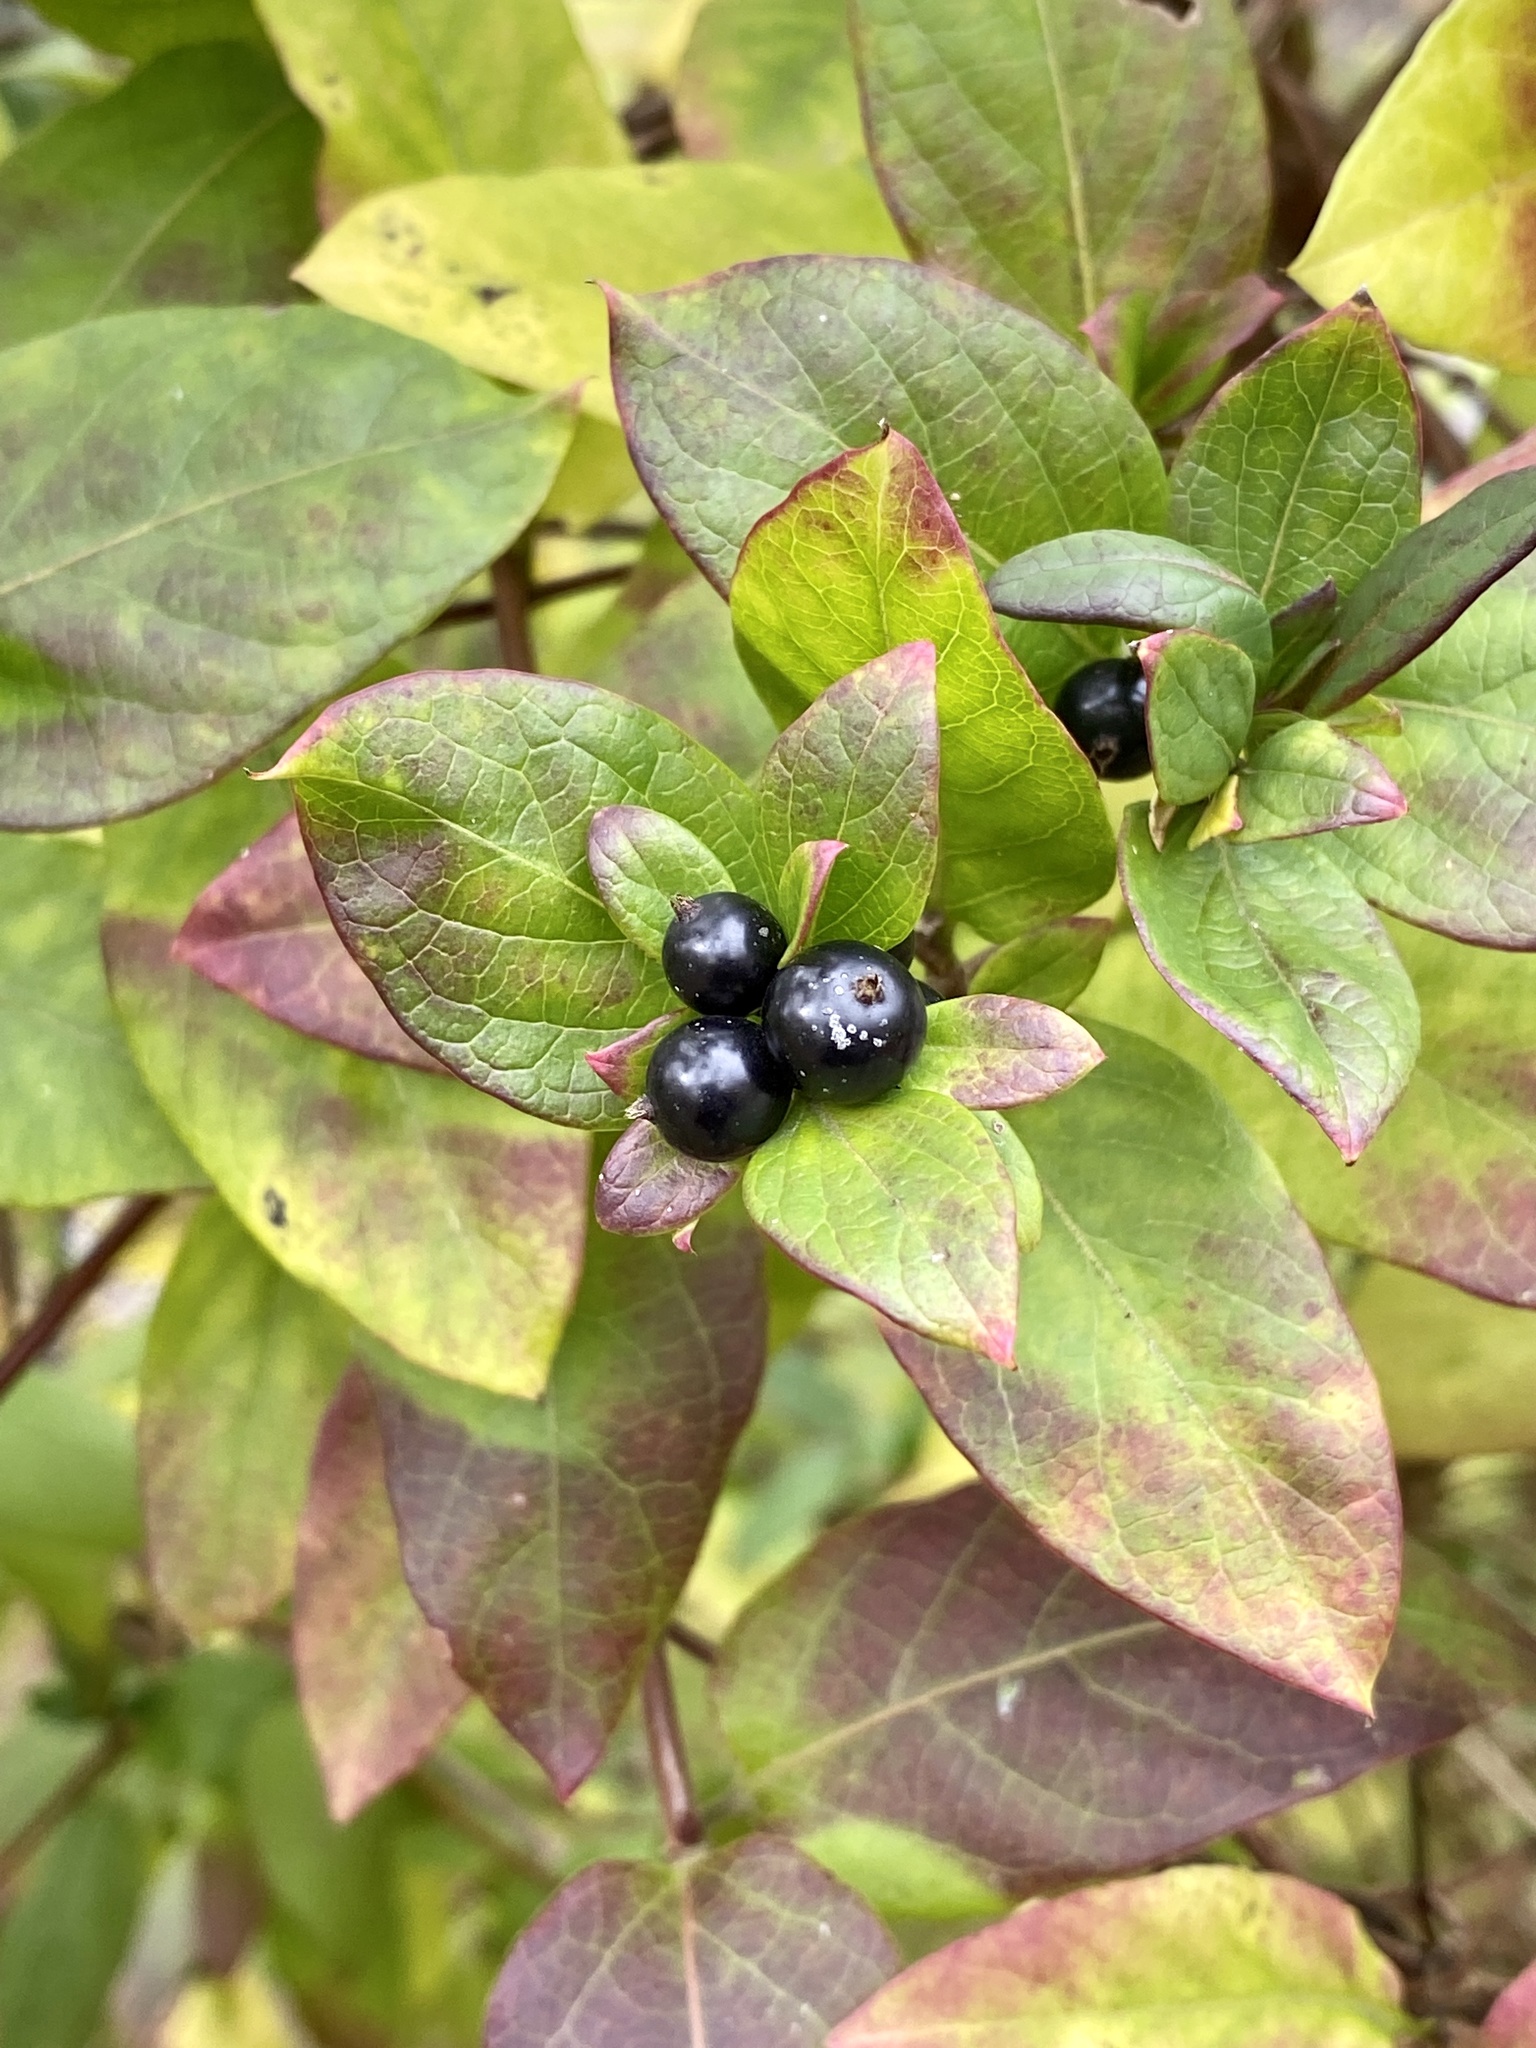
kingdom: Plantae
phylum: Tracheophyta
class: Magnoliopsida
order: Dipsacales
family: Caprifoliaceae
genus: Lonicera
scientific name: Lonicera japonica
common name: Japanese honeysuckle
